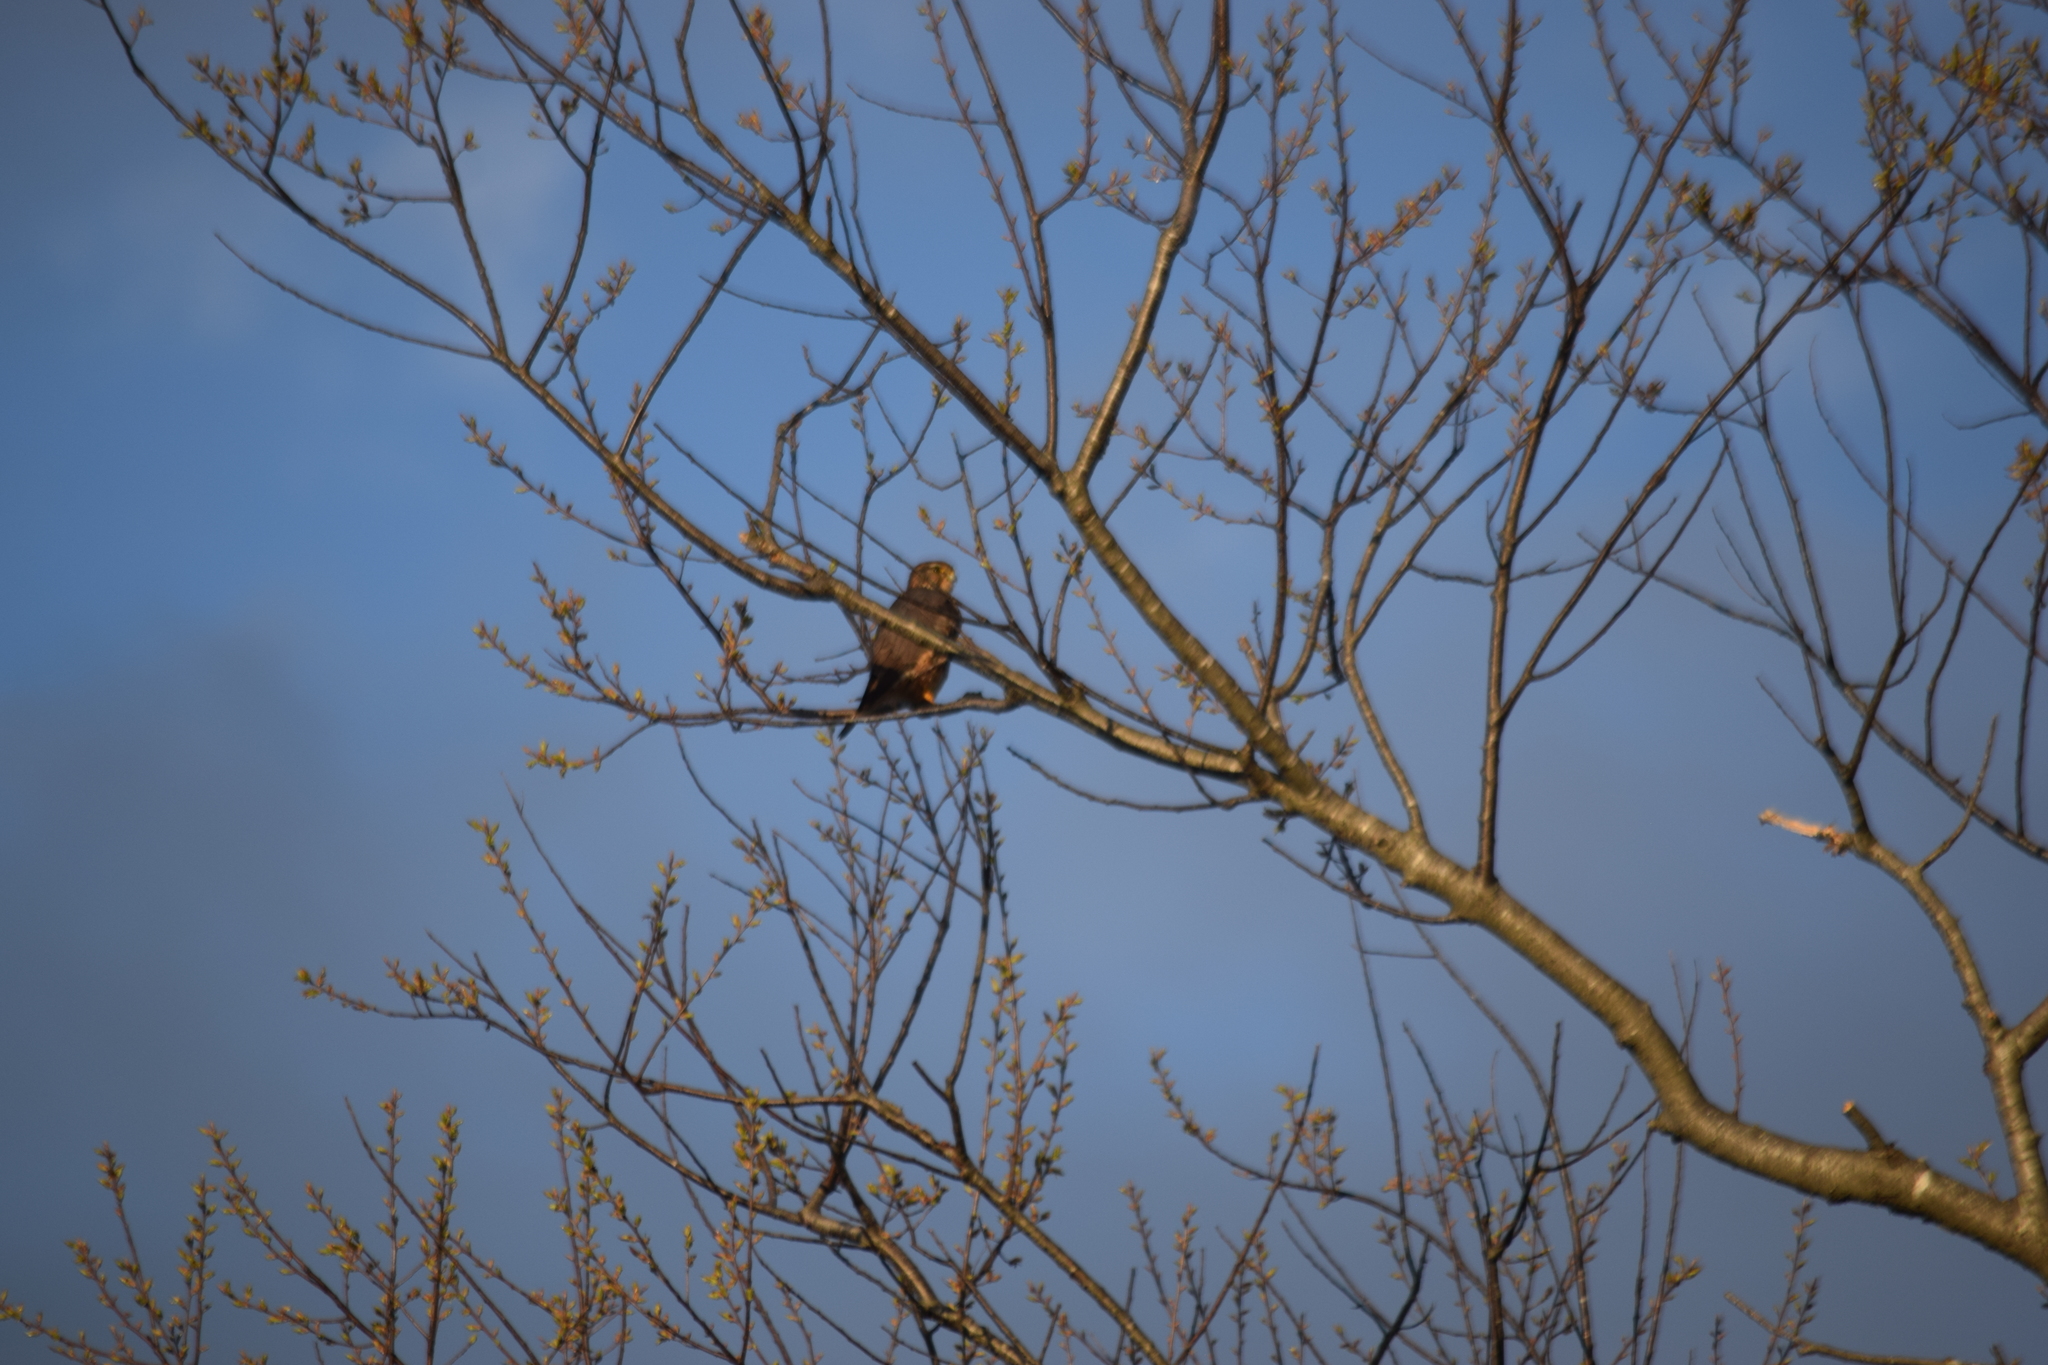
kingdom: Animalia
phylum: Chordata
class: Aves
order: Falconiformes
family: Falconidae
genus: Falco
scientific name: Falco columbarius
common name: Merlin
